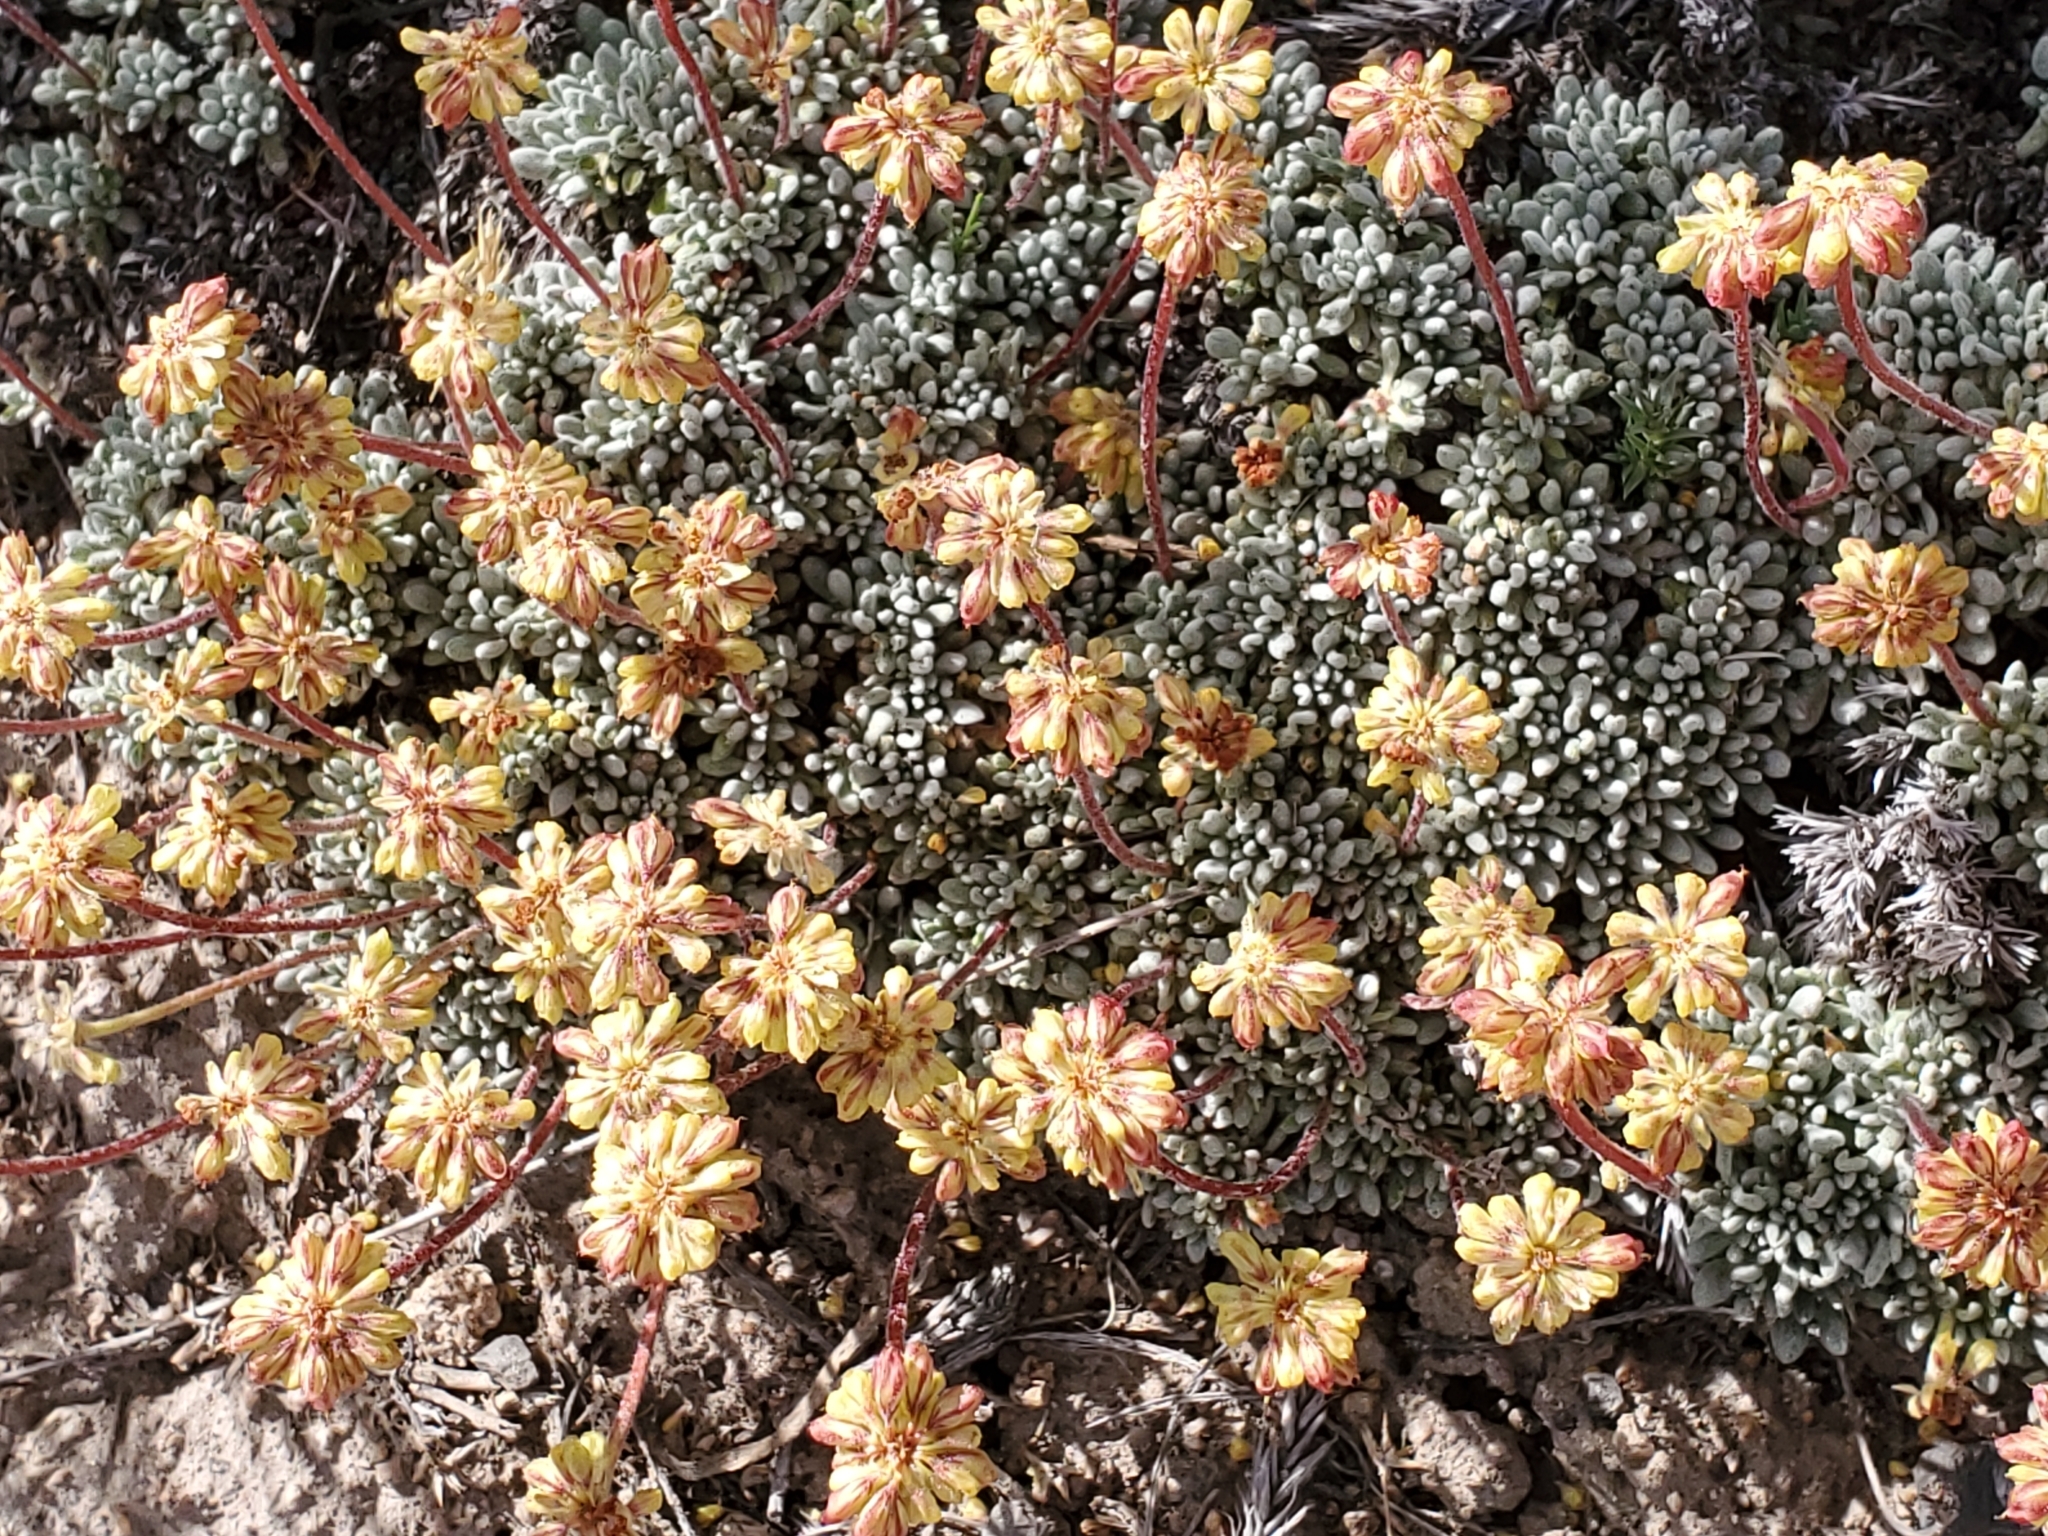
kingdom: Plantae
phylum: Tracheophyta
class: Magnoliopsida
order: Caryophyllales
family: Polygonaceae
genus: Eriogonum
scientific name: Eriogonum caespitosum
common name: Matted wild buckwheat
